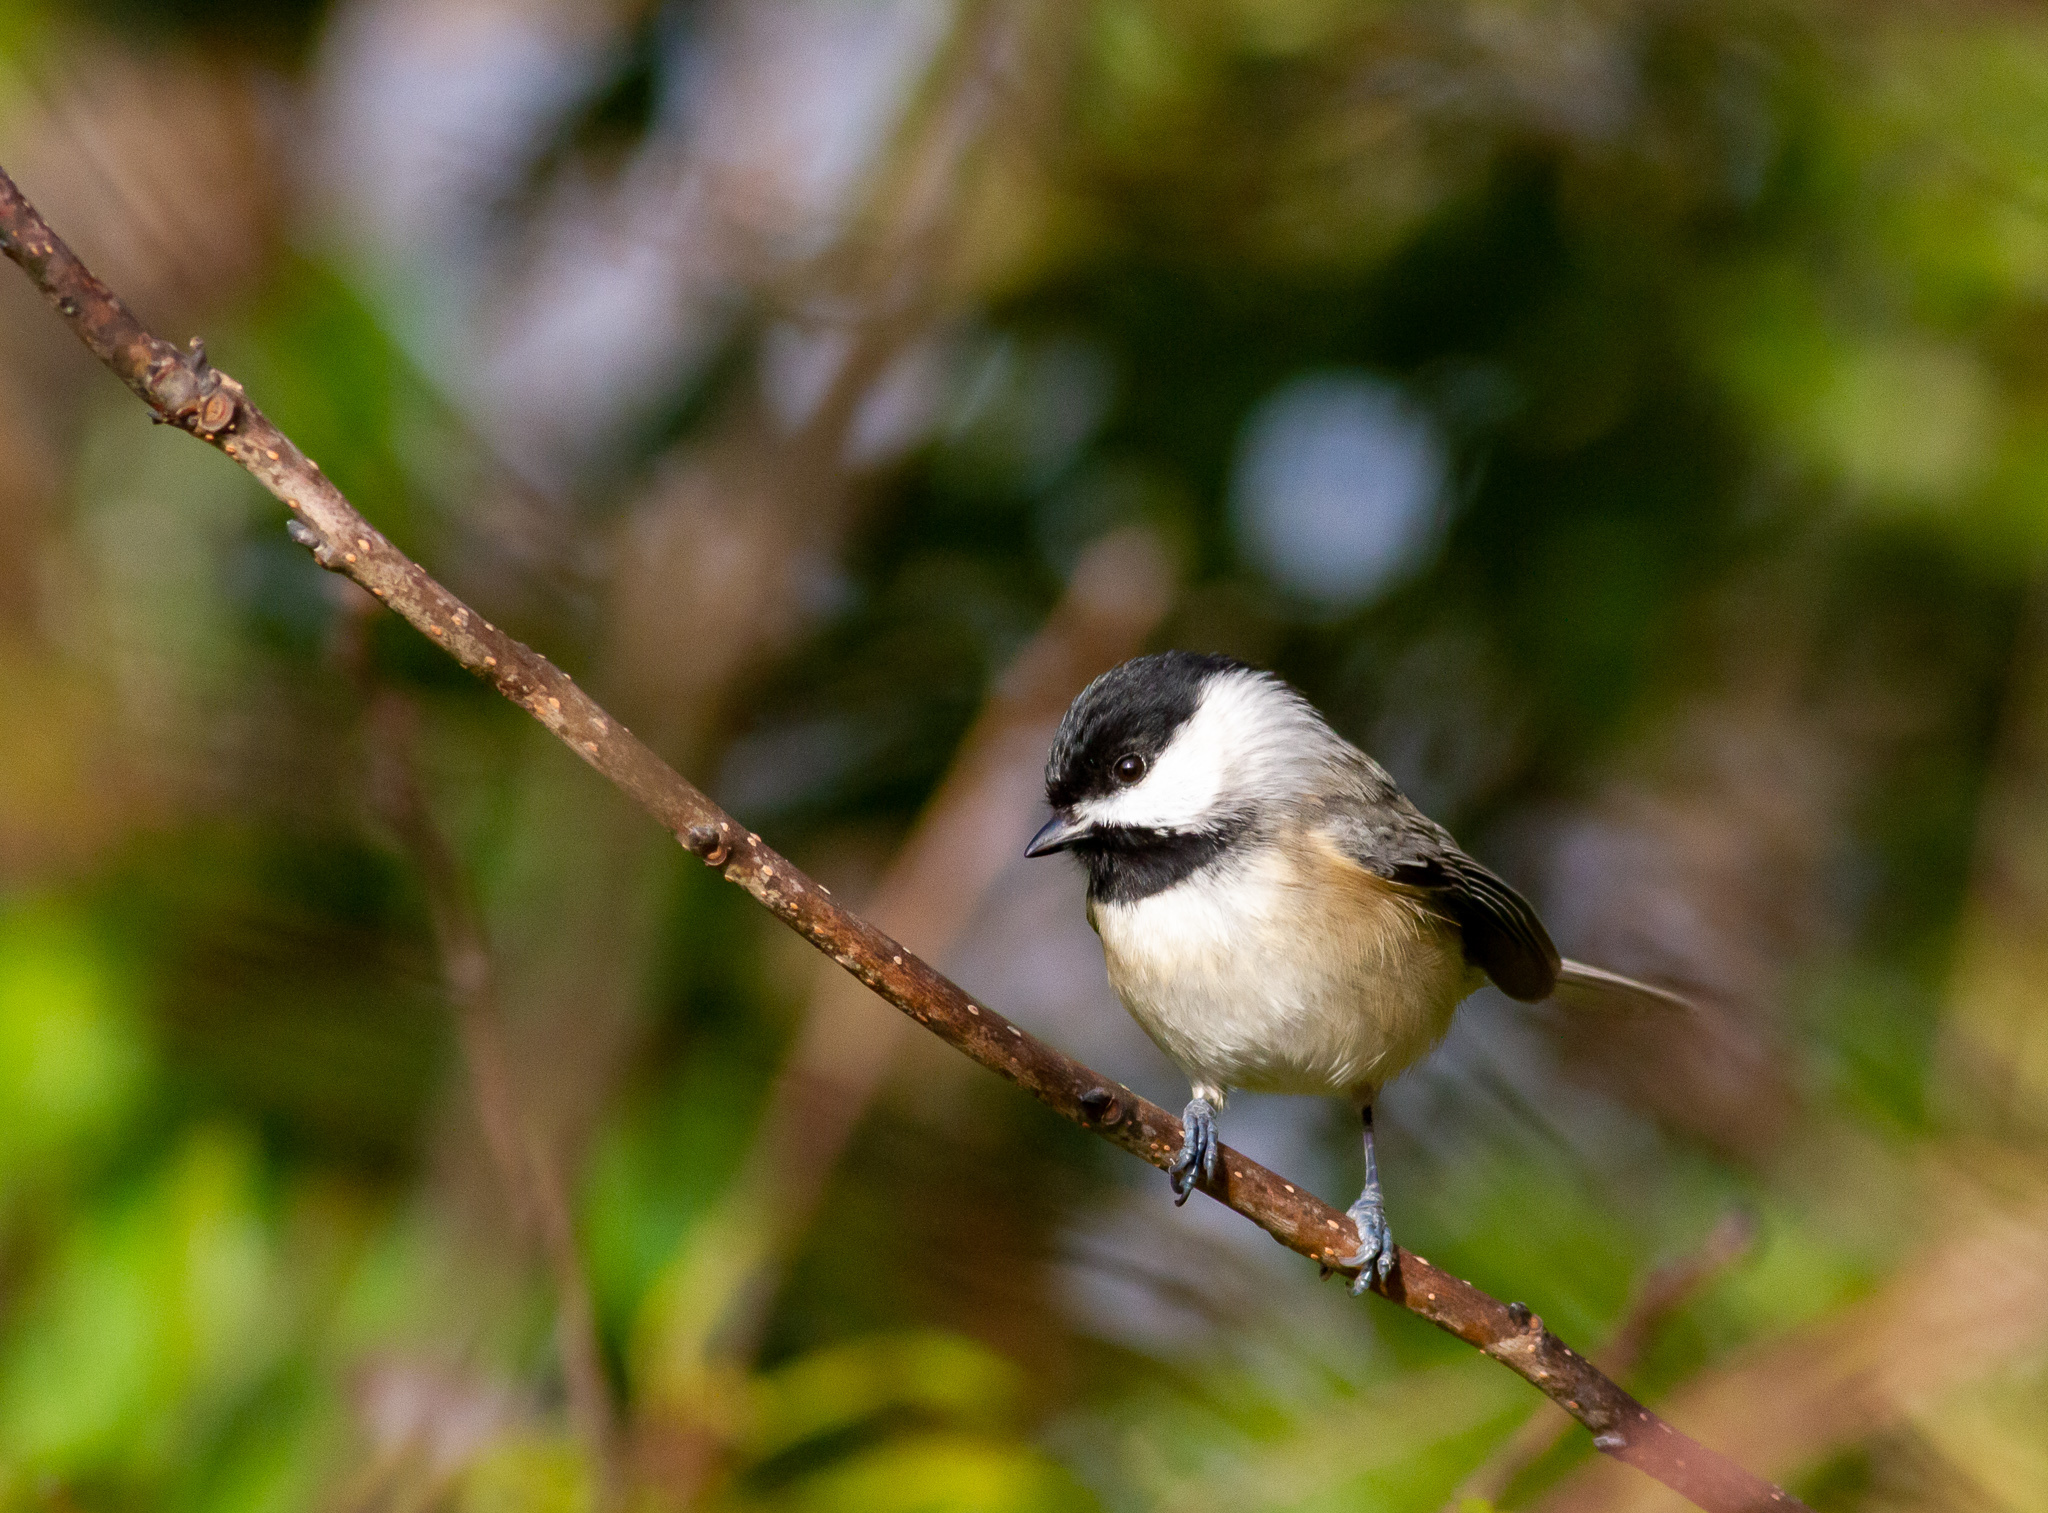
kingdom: Animalia
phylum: Chordata
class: Aves
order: Passeriformes
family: Paridae
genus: Poecile
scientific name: Poecile carolinensis
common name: Carolina chickadee
